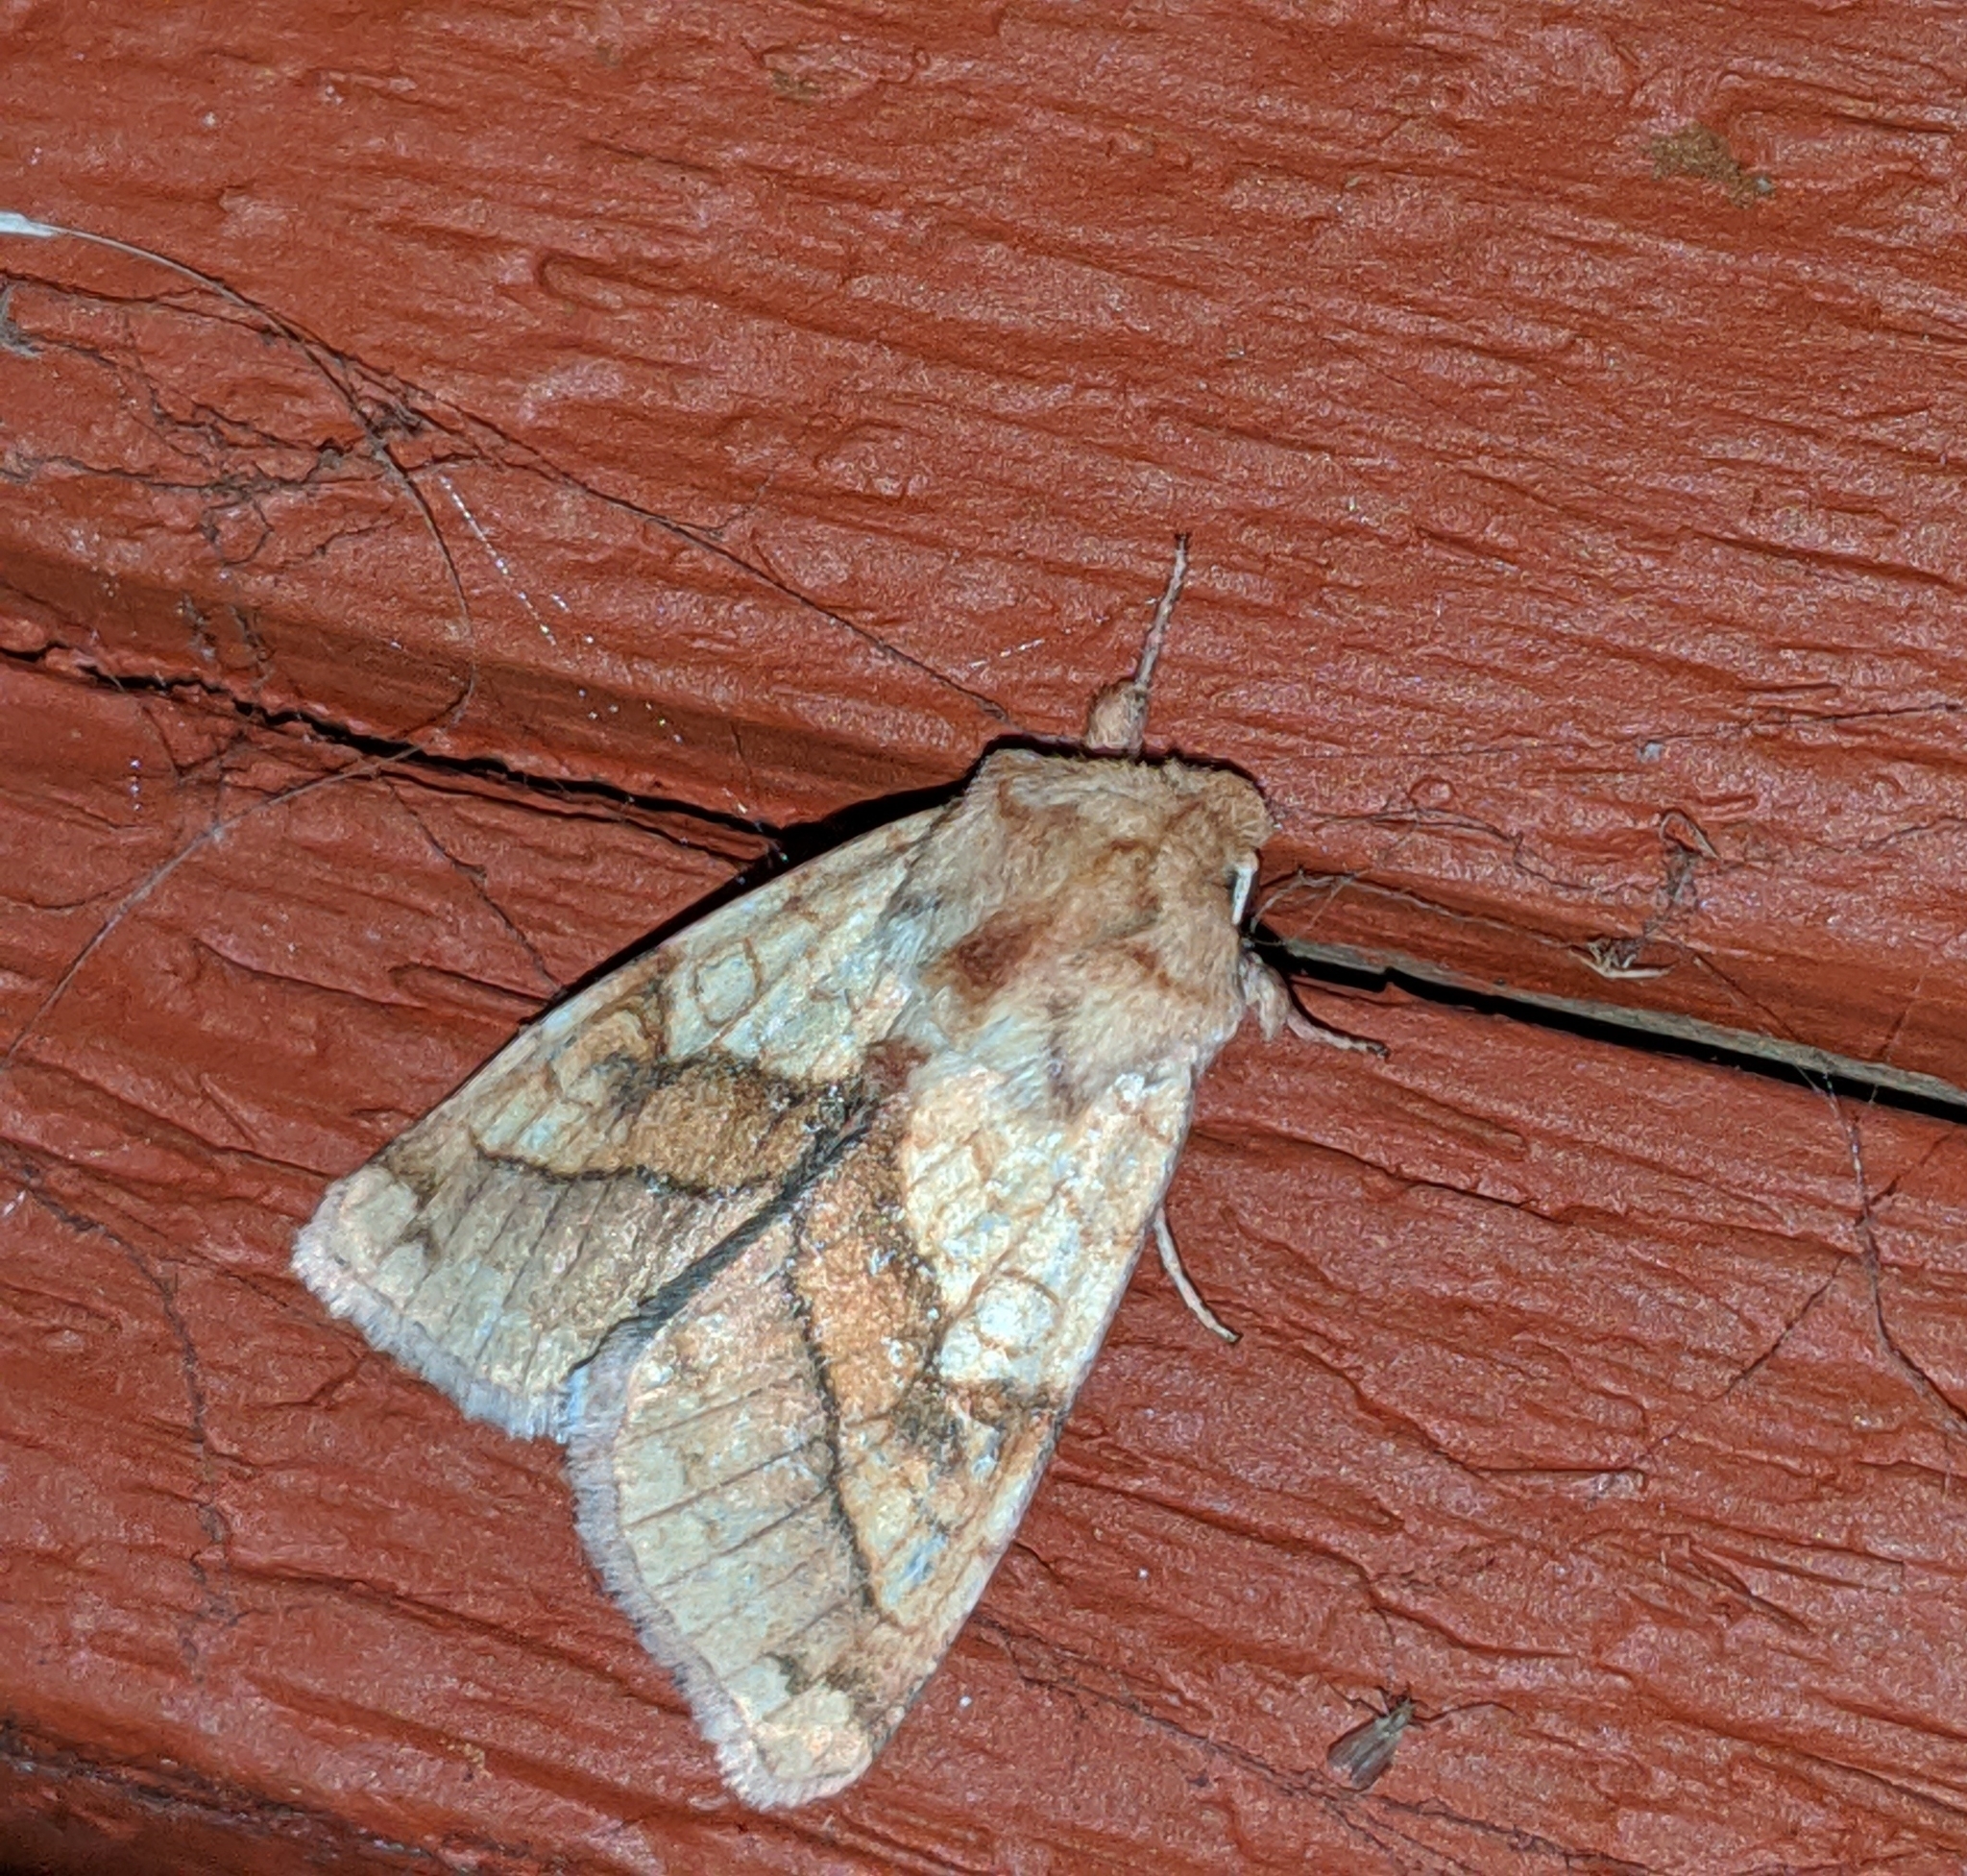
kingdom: Animalia
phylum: Arthropoda
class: Insecta
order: Lepidoptera
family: Noctuidae
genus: Pyrrhia
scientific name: Pyrrhia exprimens
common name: Purple-lined sallow
